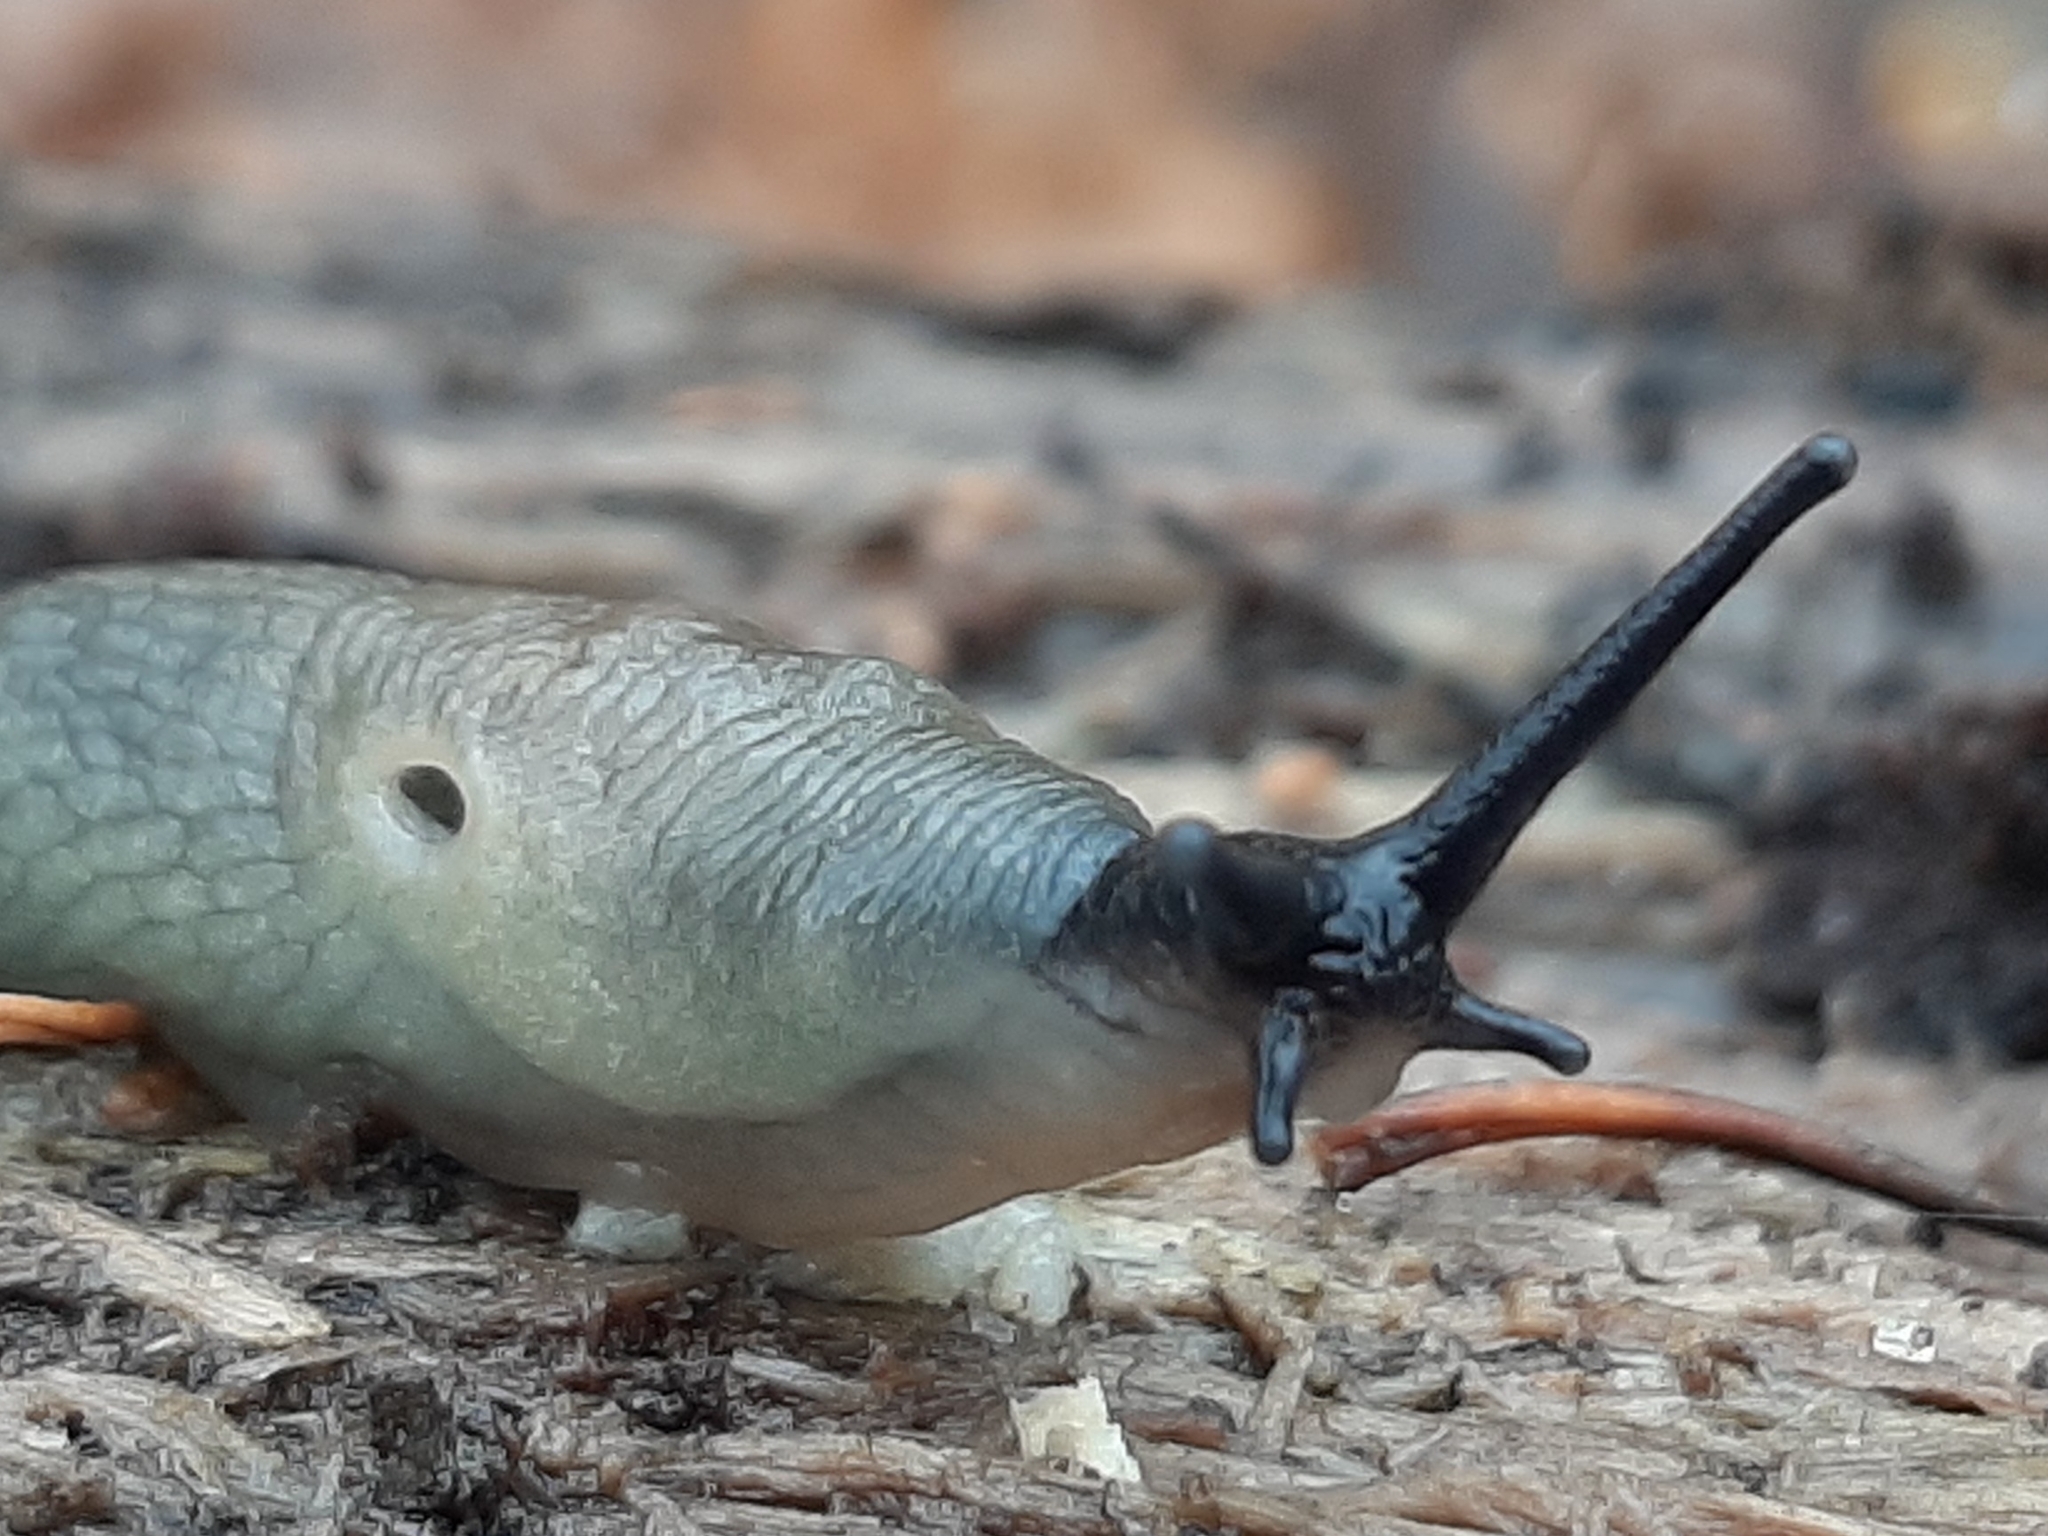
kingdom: Animalia
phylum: Mollusca
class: Gastropoda
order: Stylommatophora
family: Agriolimacidae
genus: Krynickillus
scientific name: Krynickillus melanocephalus
